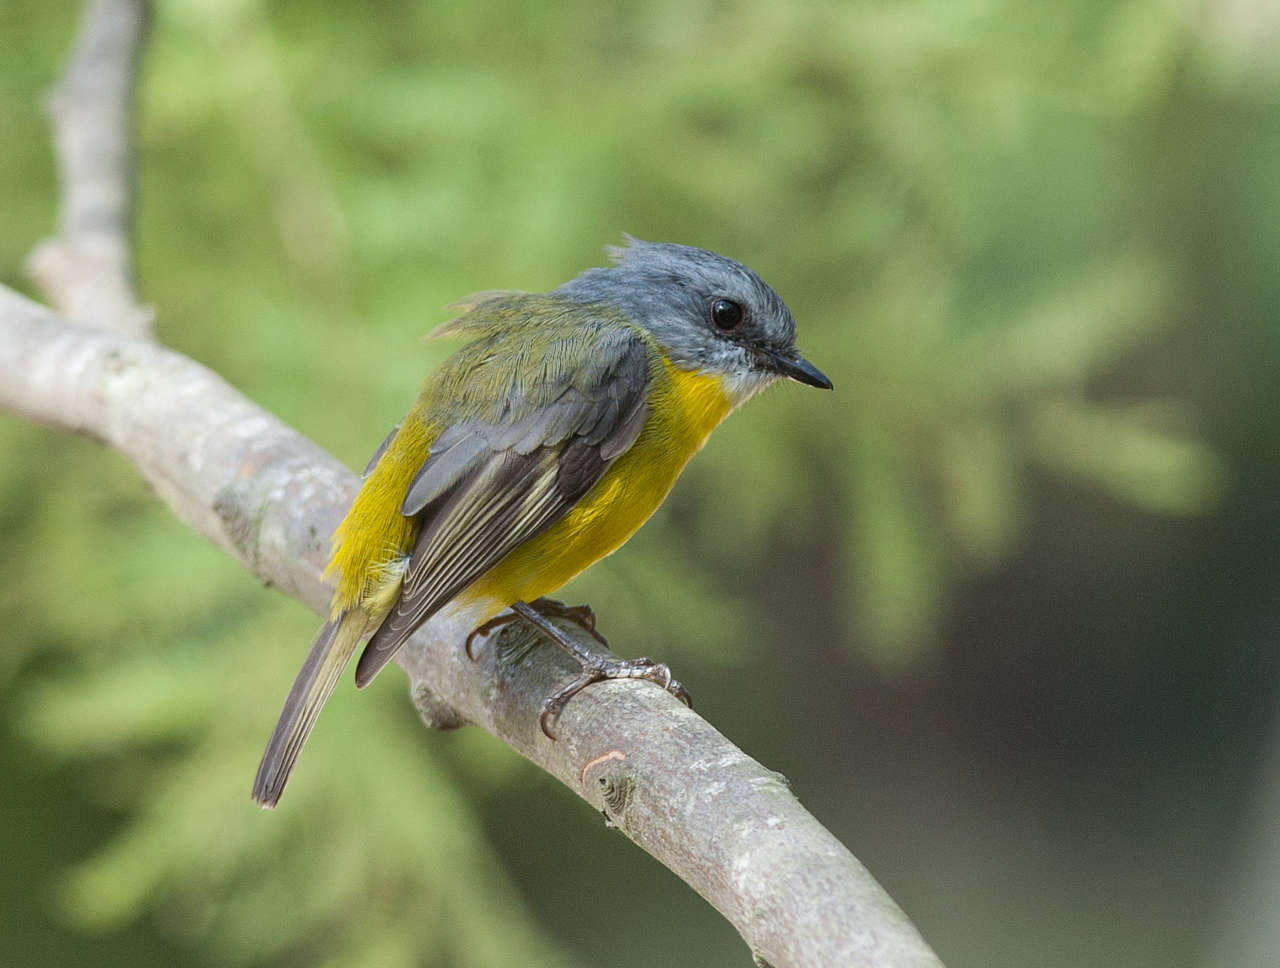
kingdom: Animalia
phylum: Chordata
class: Aves
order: Passeriformes
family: Petroicidae
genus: Eopsaltria
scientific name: Eopsaltria australis
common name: Eastern yellow robin
